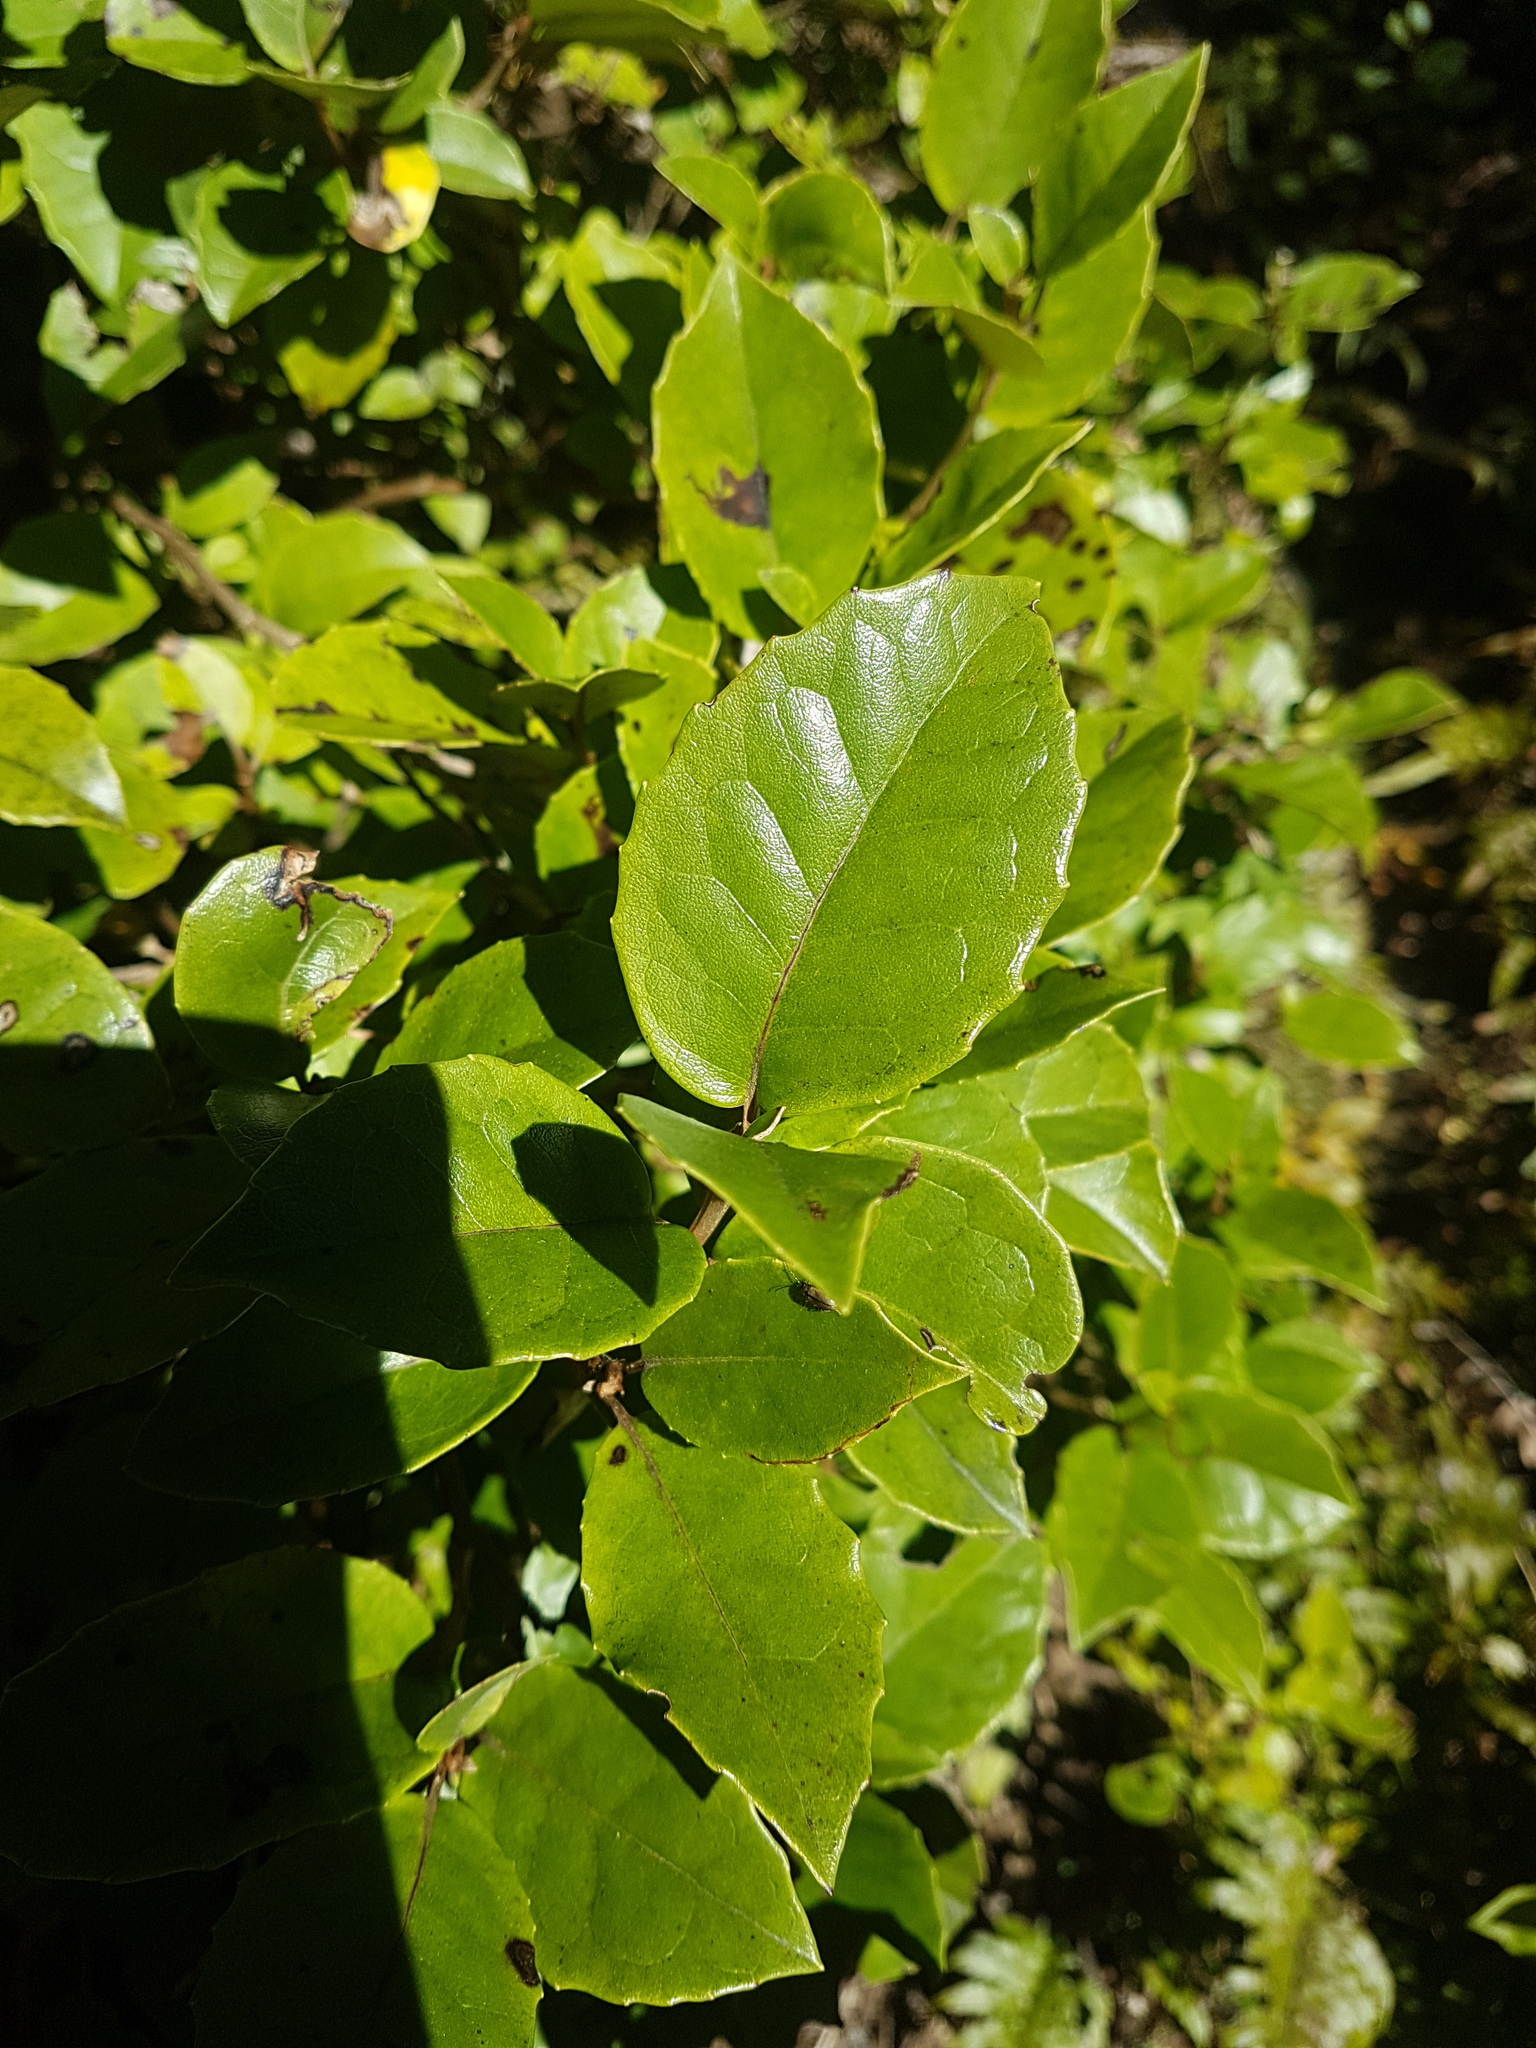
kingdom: Plantae
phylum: Tracheophyta
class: Magnoliopsida
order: Asterales
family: Asteraceae
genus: Olearia
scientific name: Olearia arborescens
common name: Glossy tree daisy
